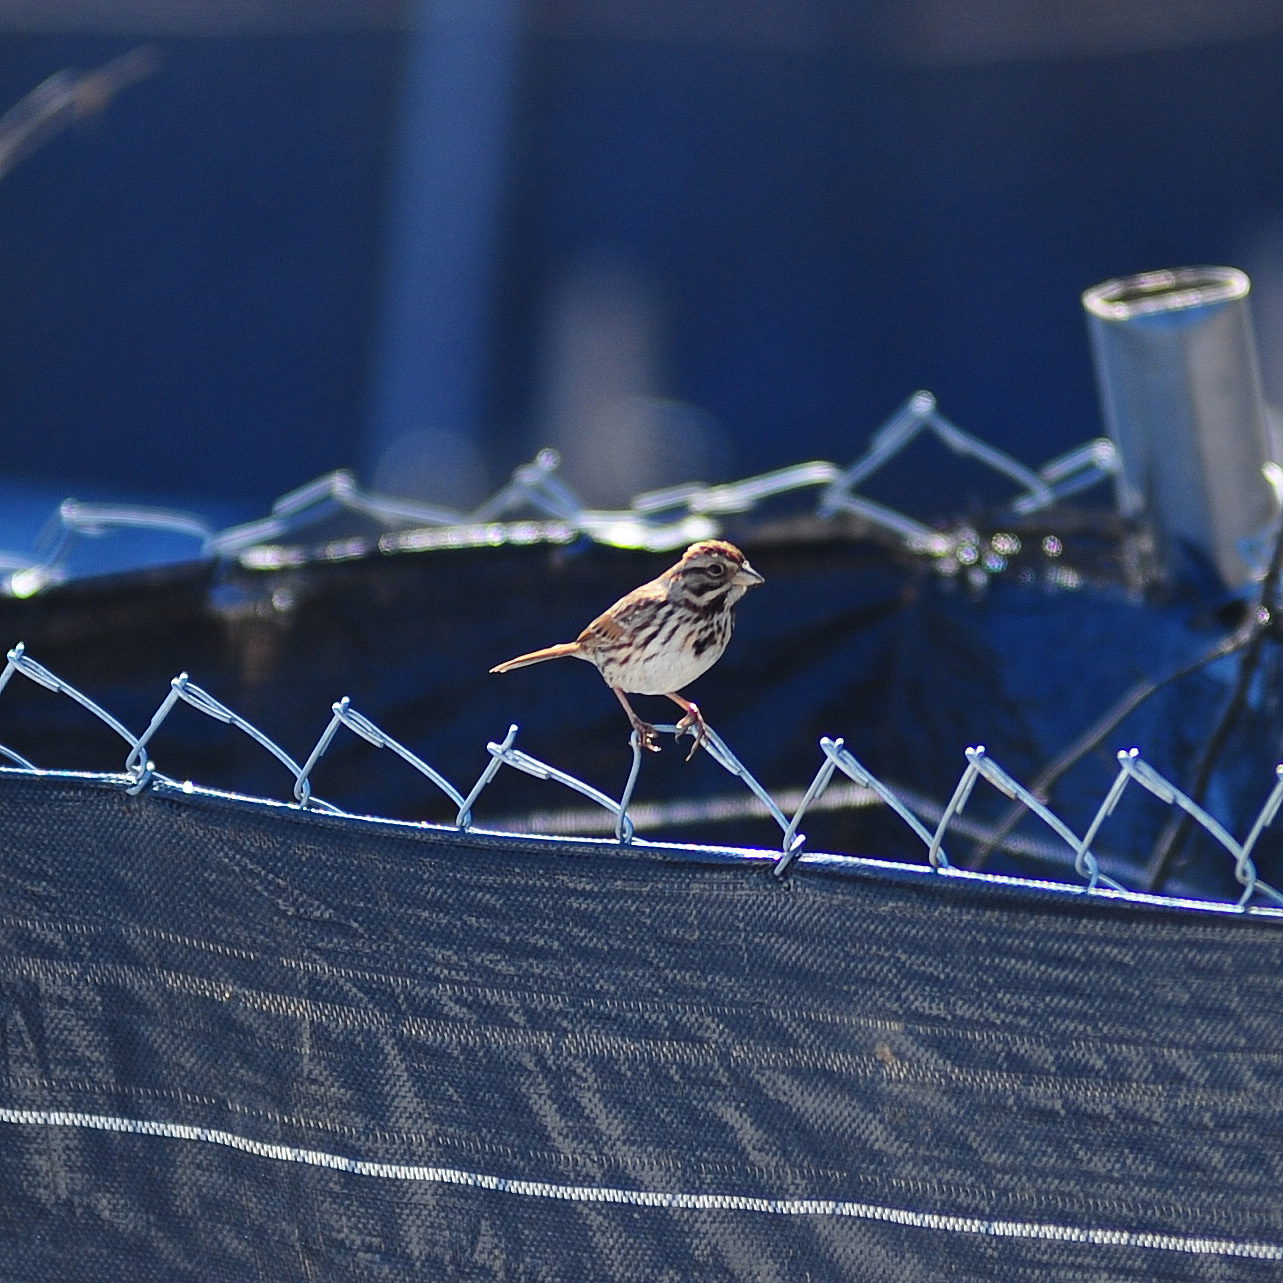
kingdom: Animalia
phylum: Chordata
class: Aves
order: Passeriformes
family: Passerellidae
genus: Melospiza
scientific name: Melospiza melodia
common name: Song sparrow
